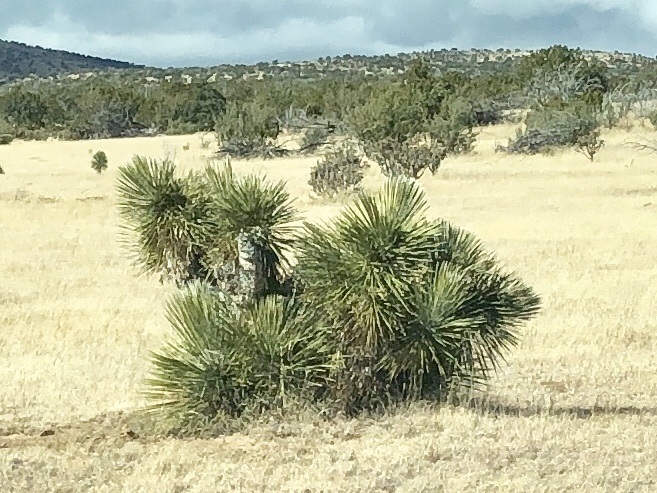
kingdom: Plantae
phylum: Tracheophyta
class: Liliopsida
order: Asparagales
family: Asparagaceae
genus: Yucca
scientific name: Yucca elata
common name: Palmella
